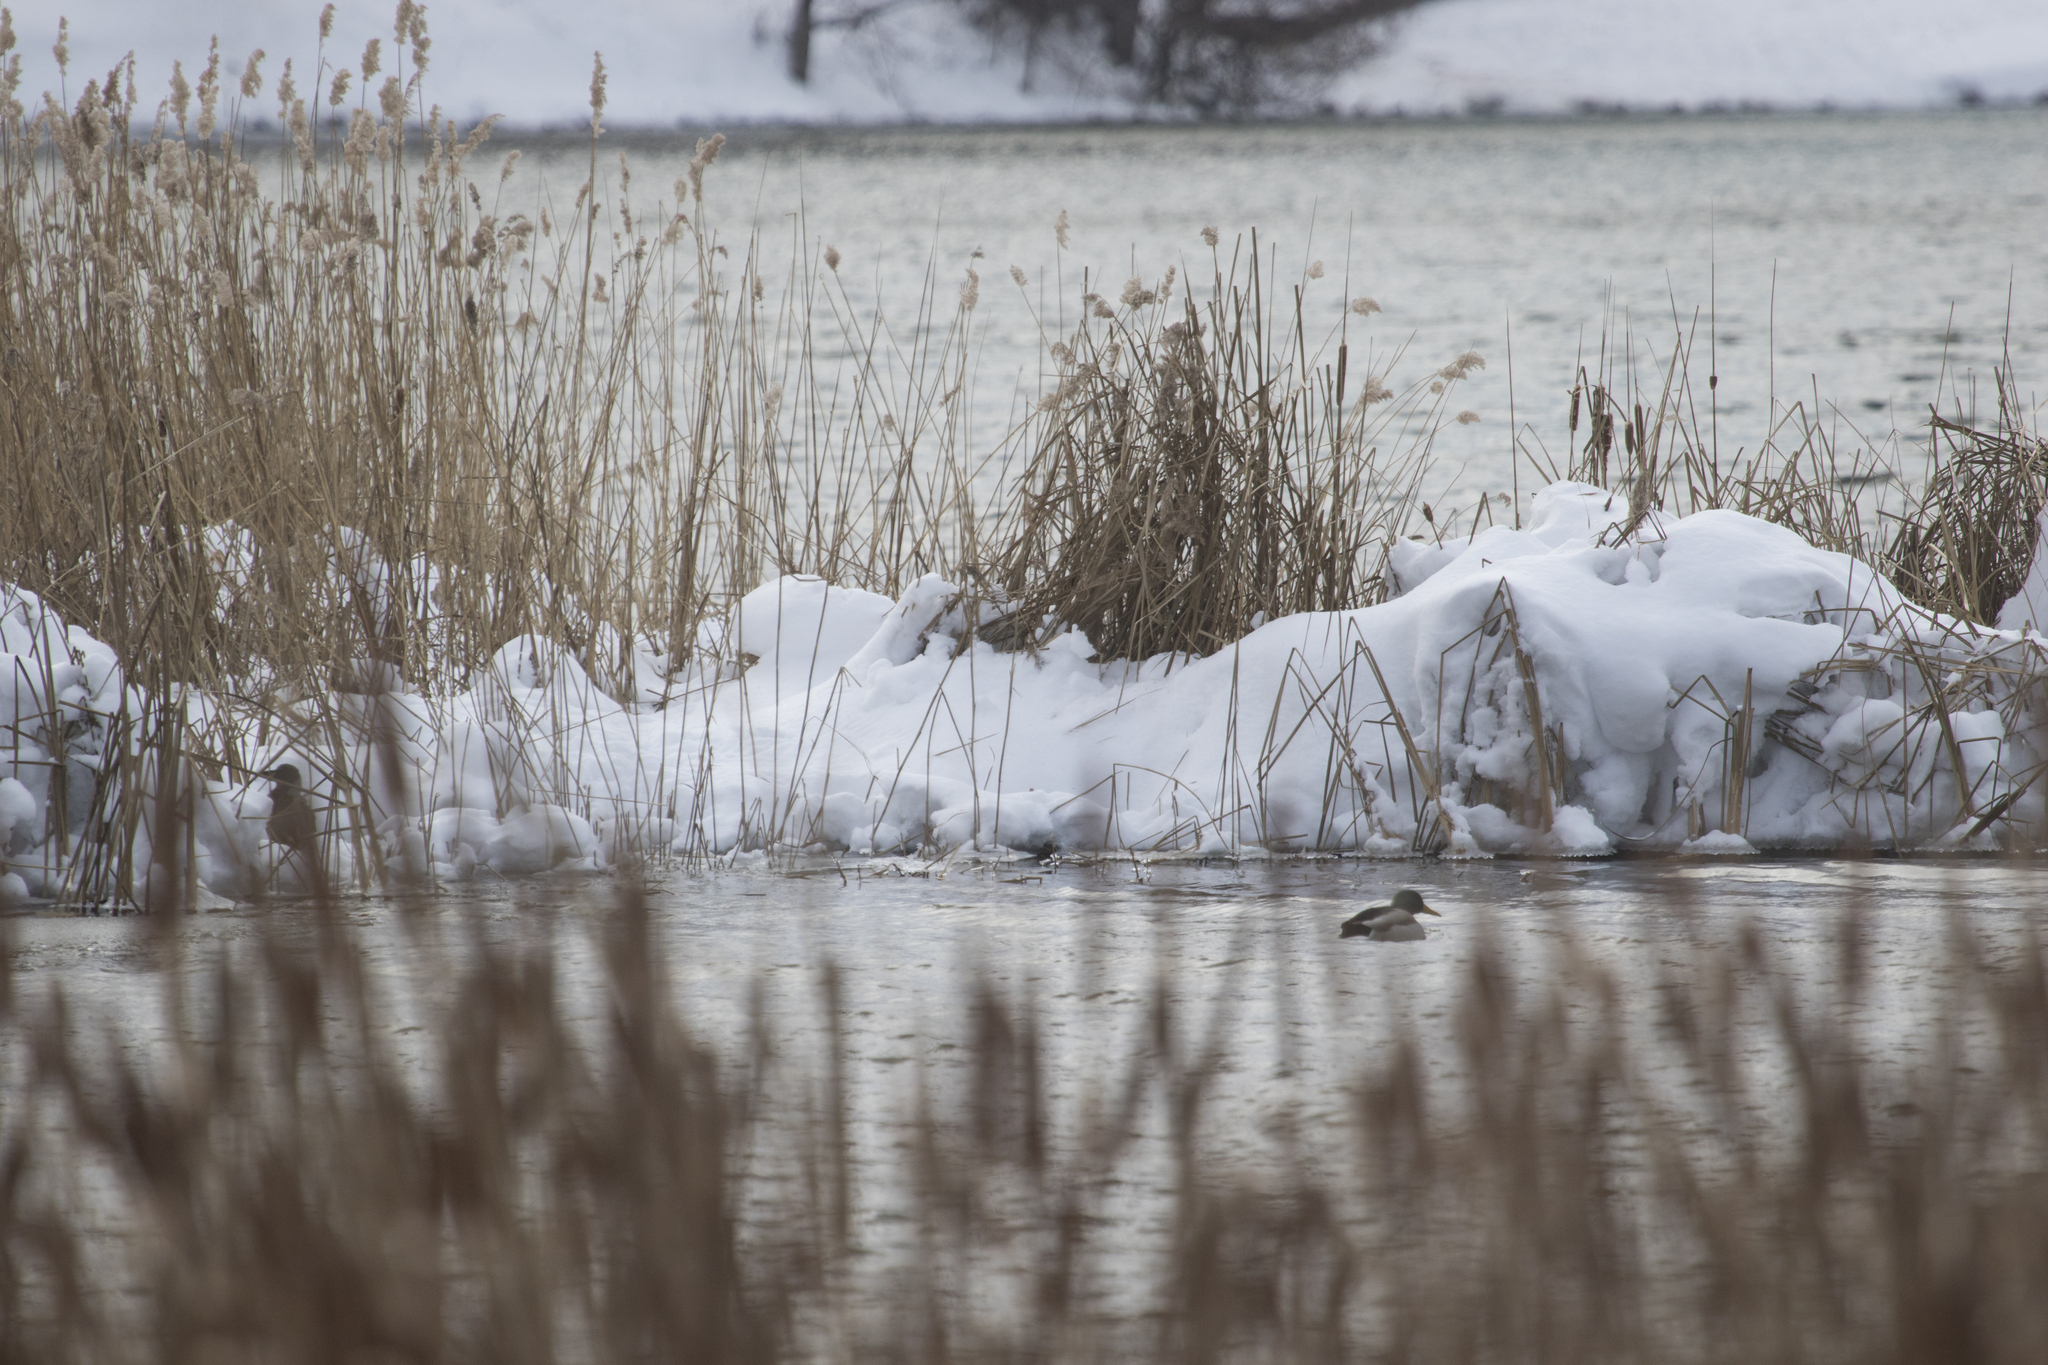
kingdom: Animalia
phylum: Chordata
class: Aves
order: Anseriformes
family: Anatidae
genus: Anas
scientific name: Anas platyrhynchos
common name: Mallard
